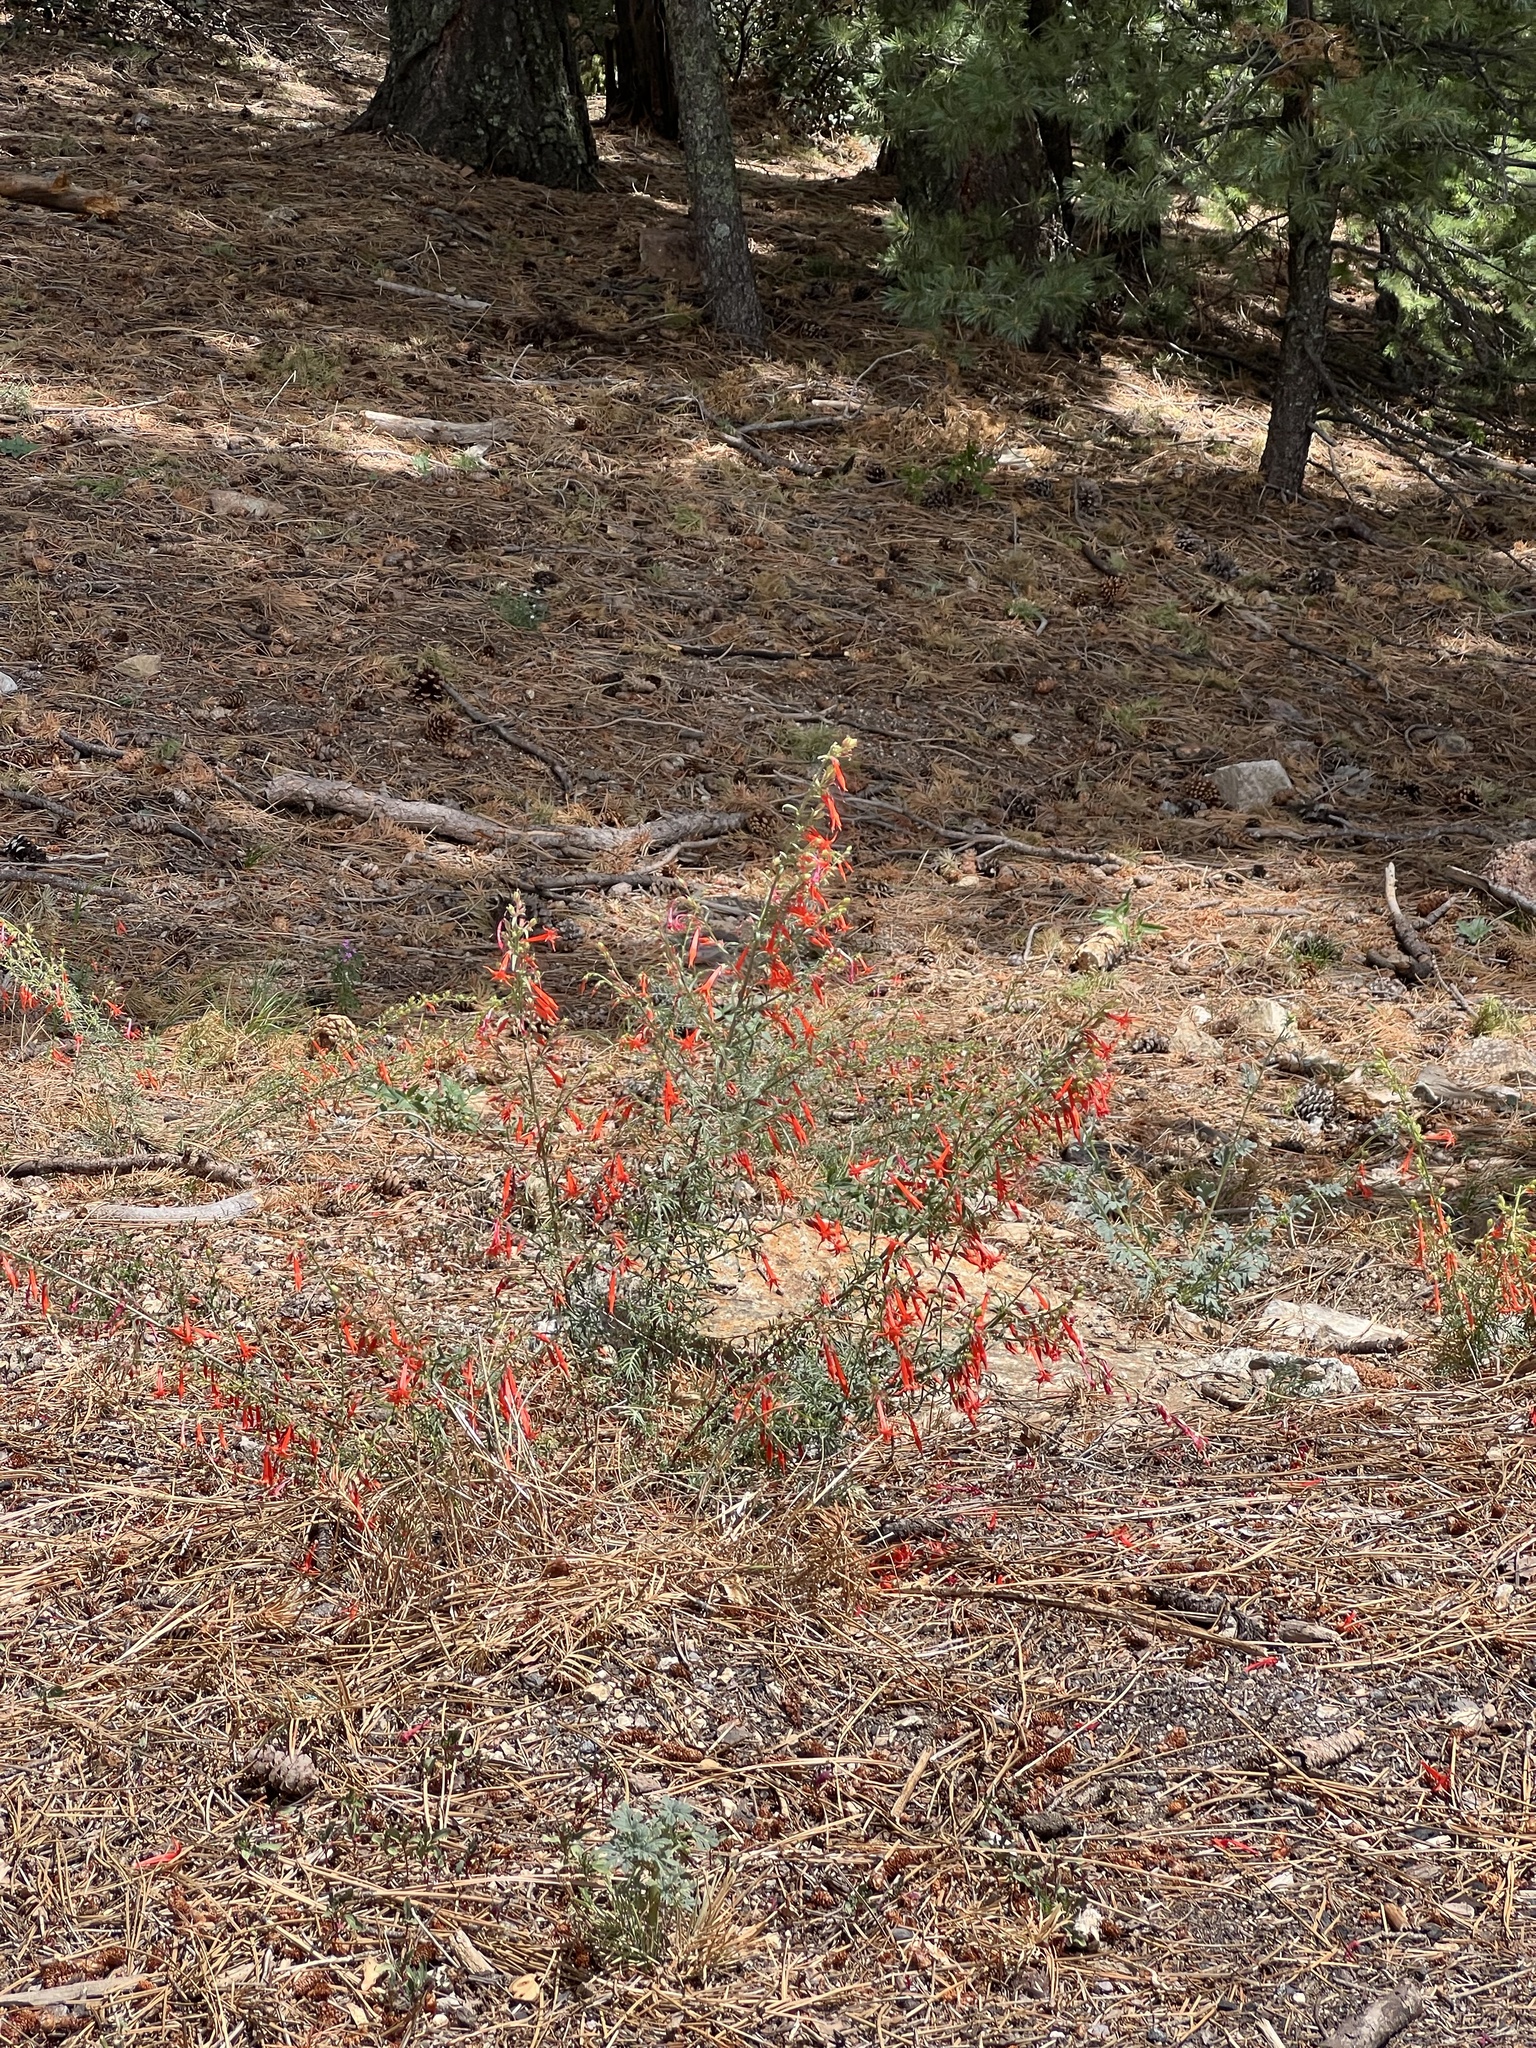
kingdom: Plantae
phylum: Tracheophyta
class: Magnoliopsida
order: Ericales
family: Polemoniaceae
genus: Ipomopsis
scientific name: Ipomopsis aggregata
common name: Scarlet gilia
